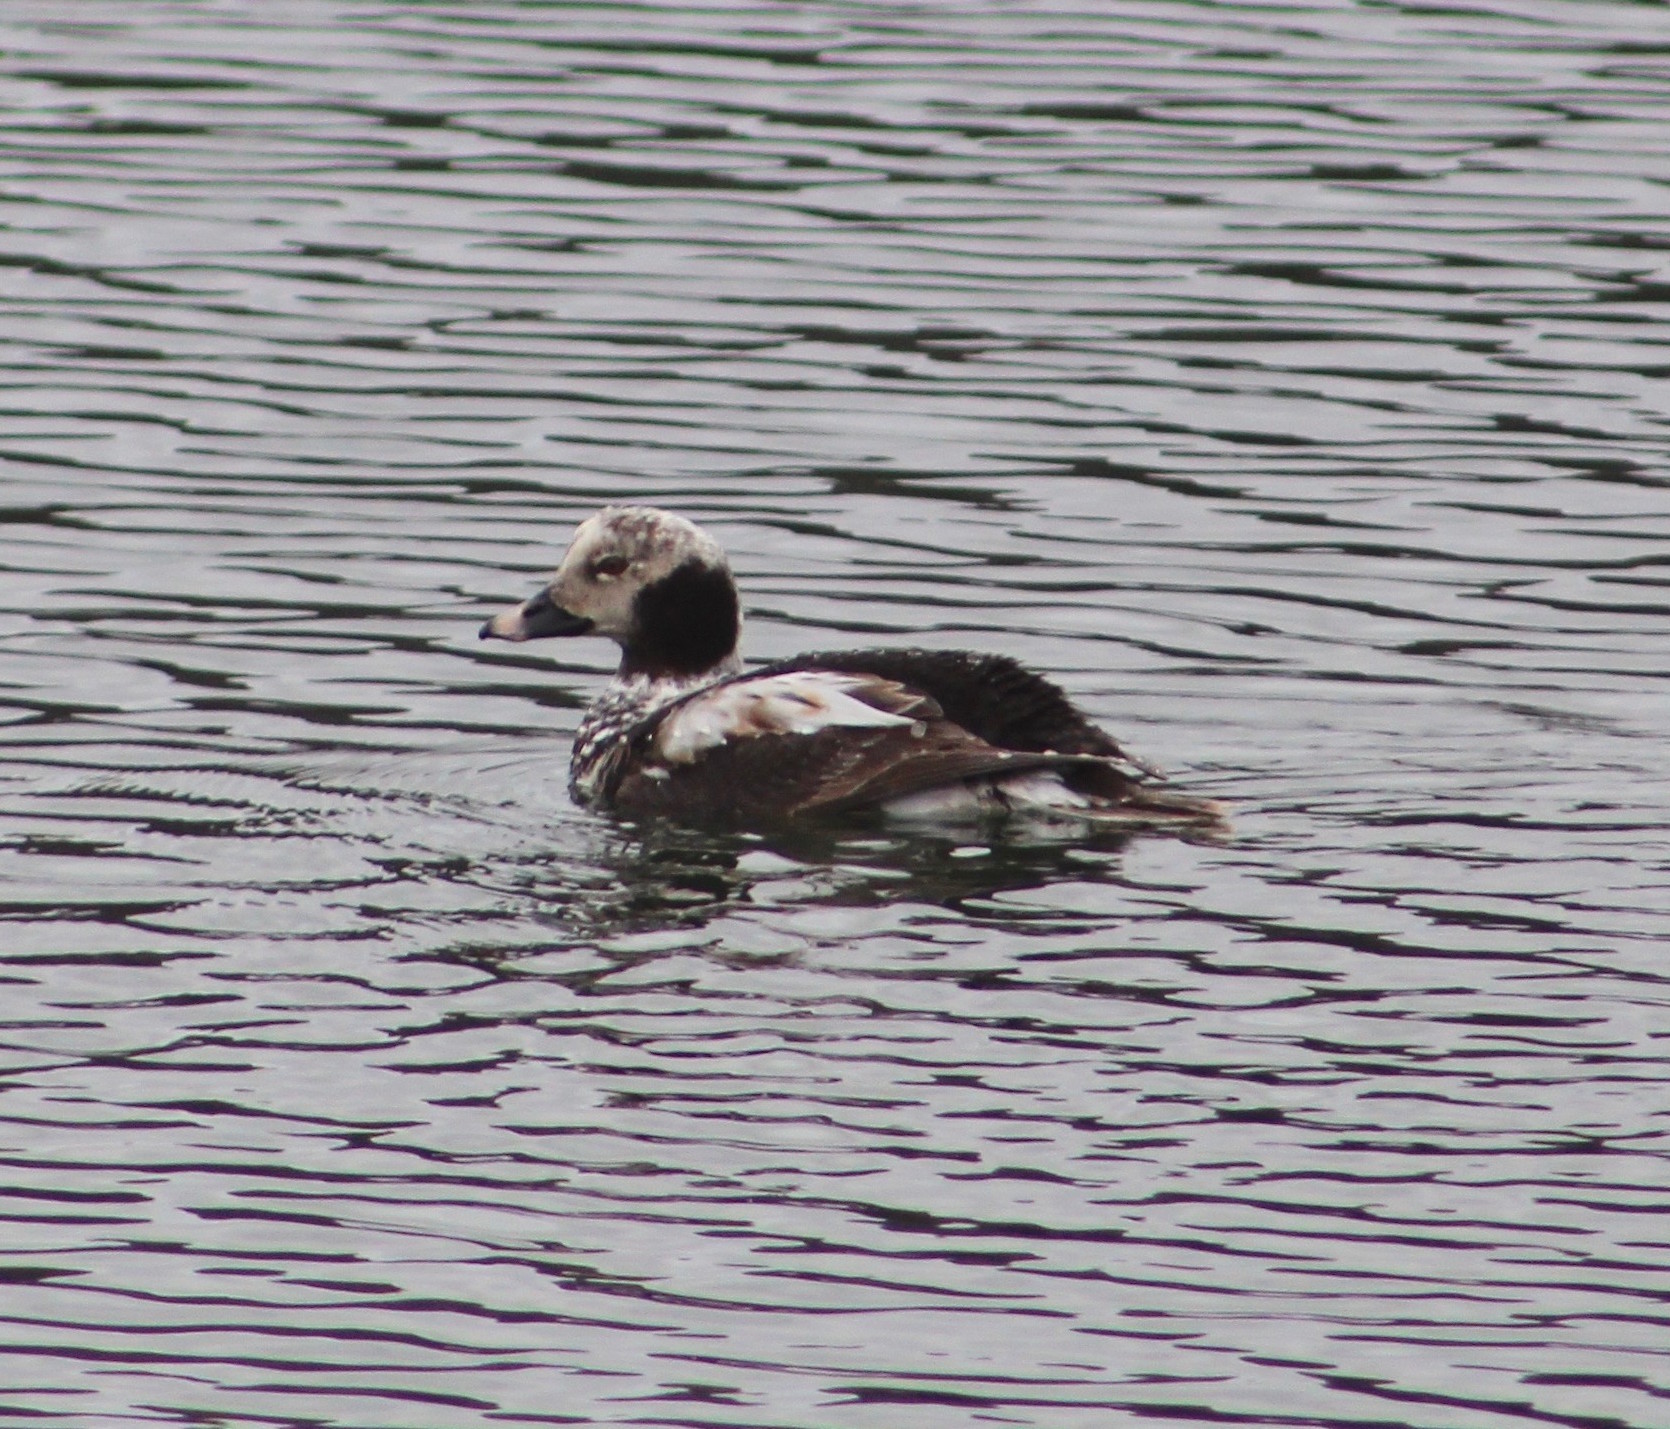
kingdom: Animalia
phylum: Chordata
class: Aves
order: Anseriformes
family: Anatidae
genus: Clangula
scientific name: Clangula hyemalis
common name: Long-tailed duck
